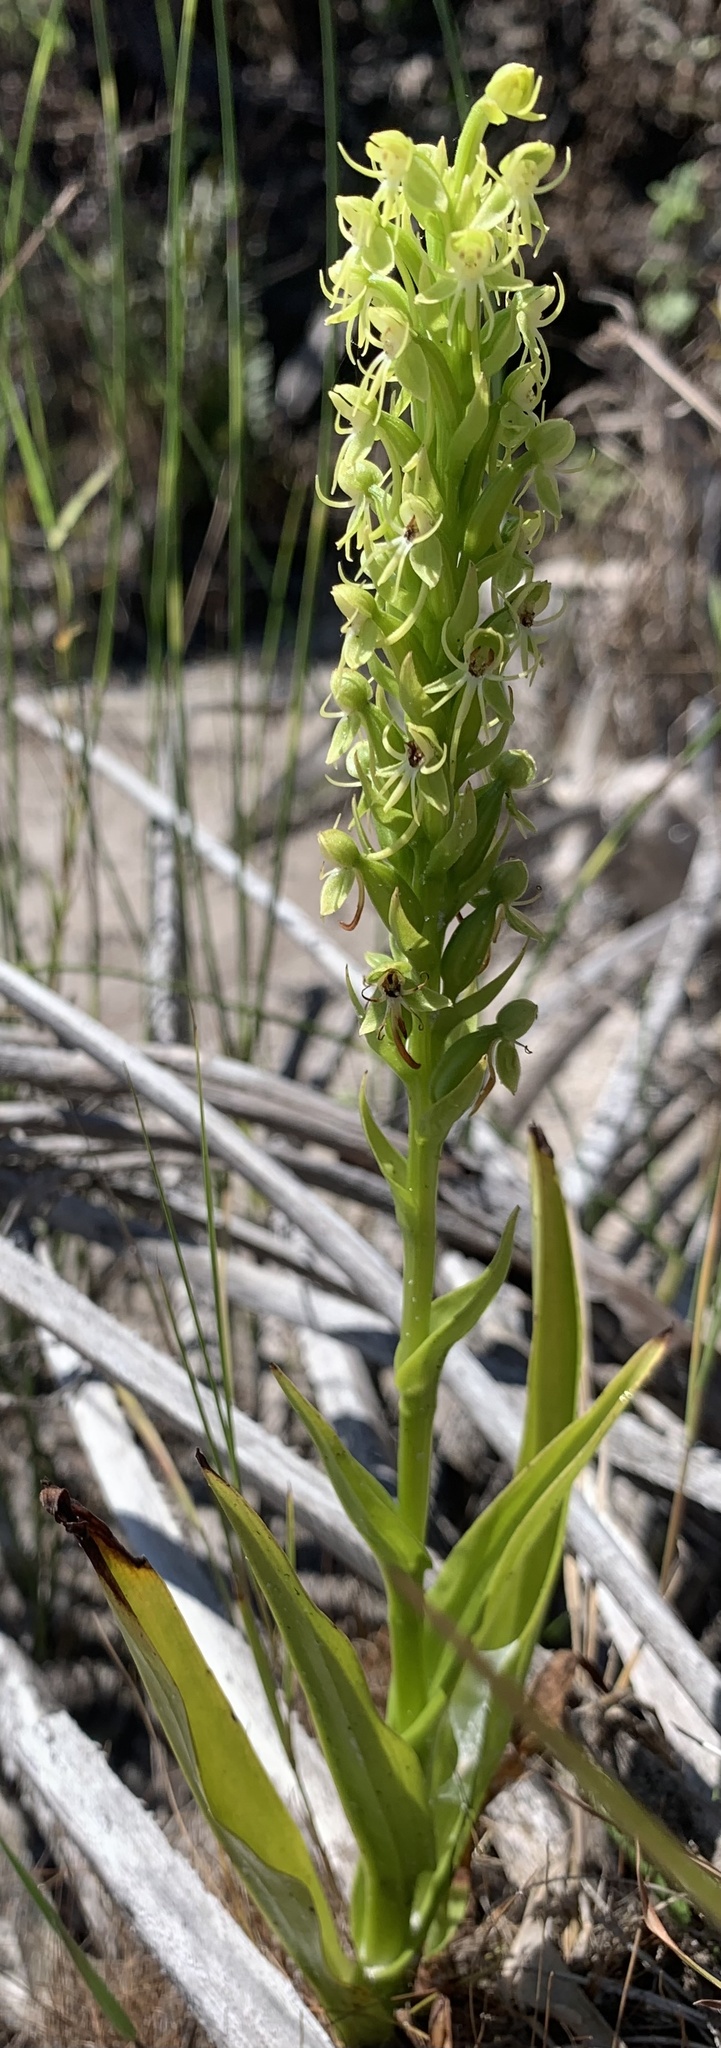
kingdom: Plantae
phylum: Tracheophyta
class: Liliopsida
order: Asparagales
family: Orchidaceae
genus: Habenaria
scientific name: Habenaria repens
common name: Water orchid
